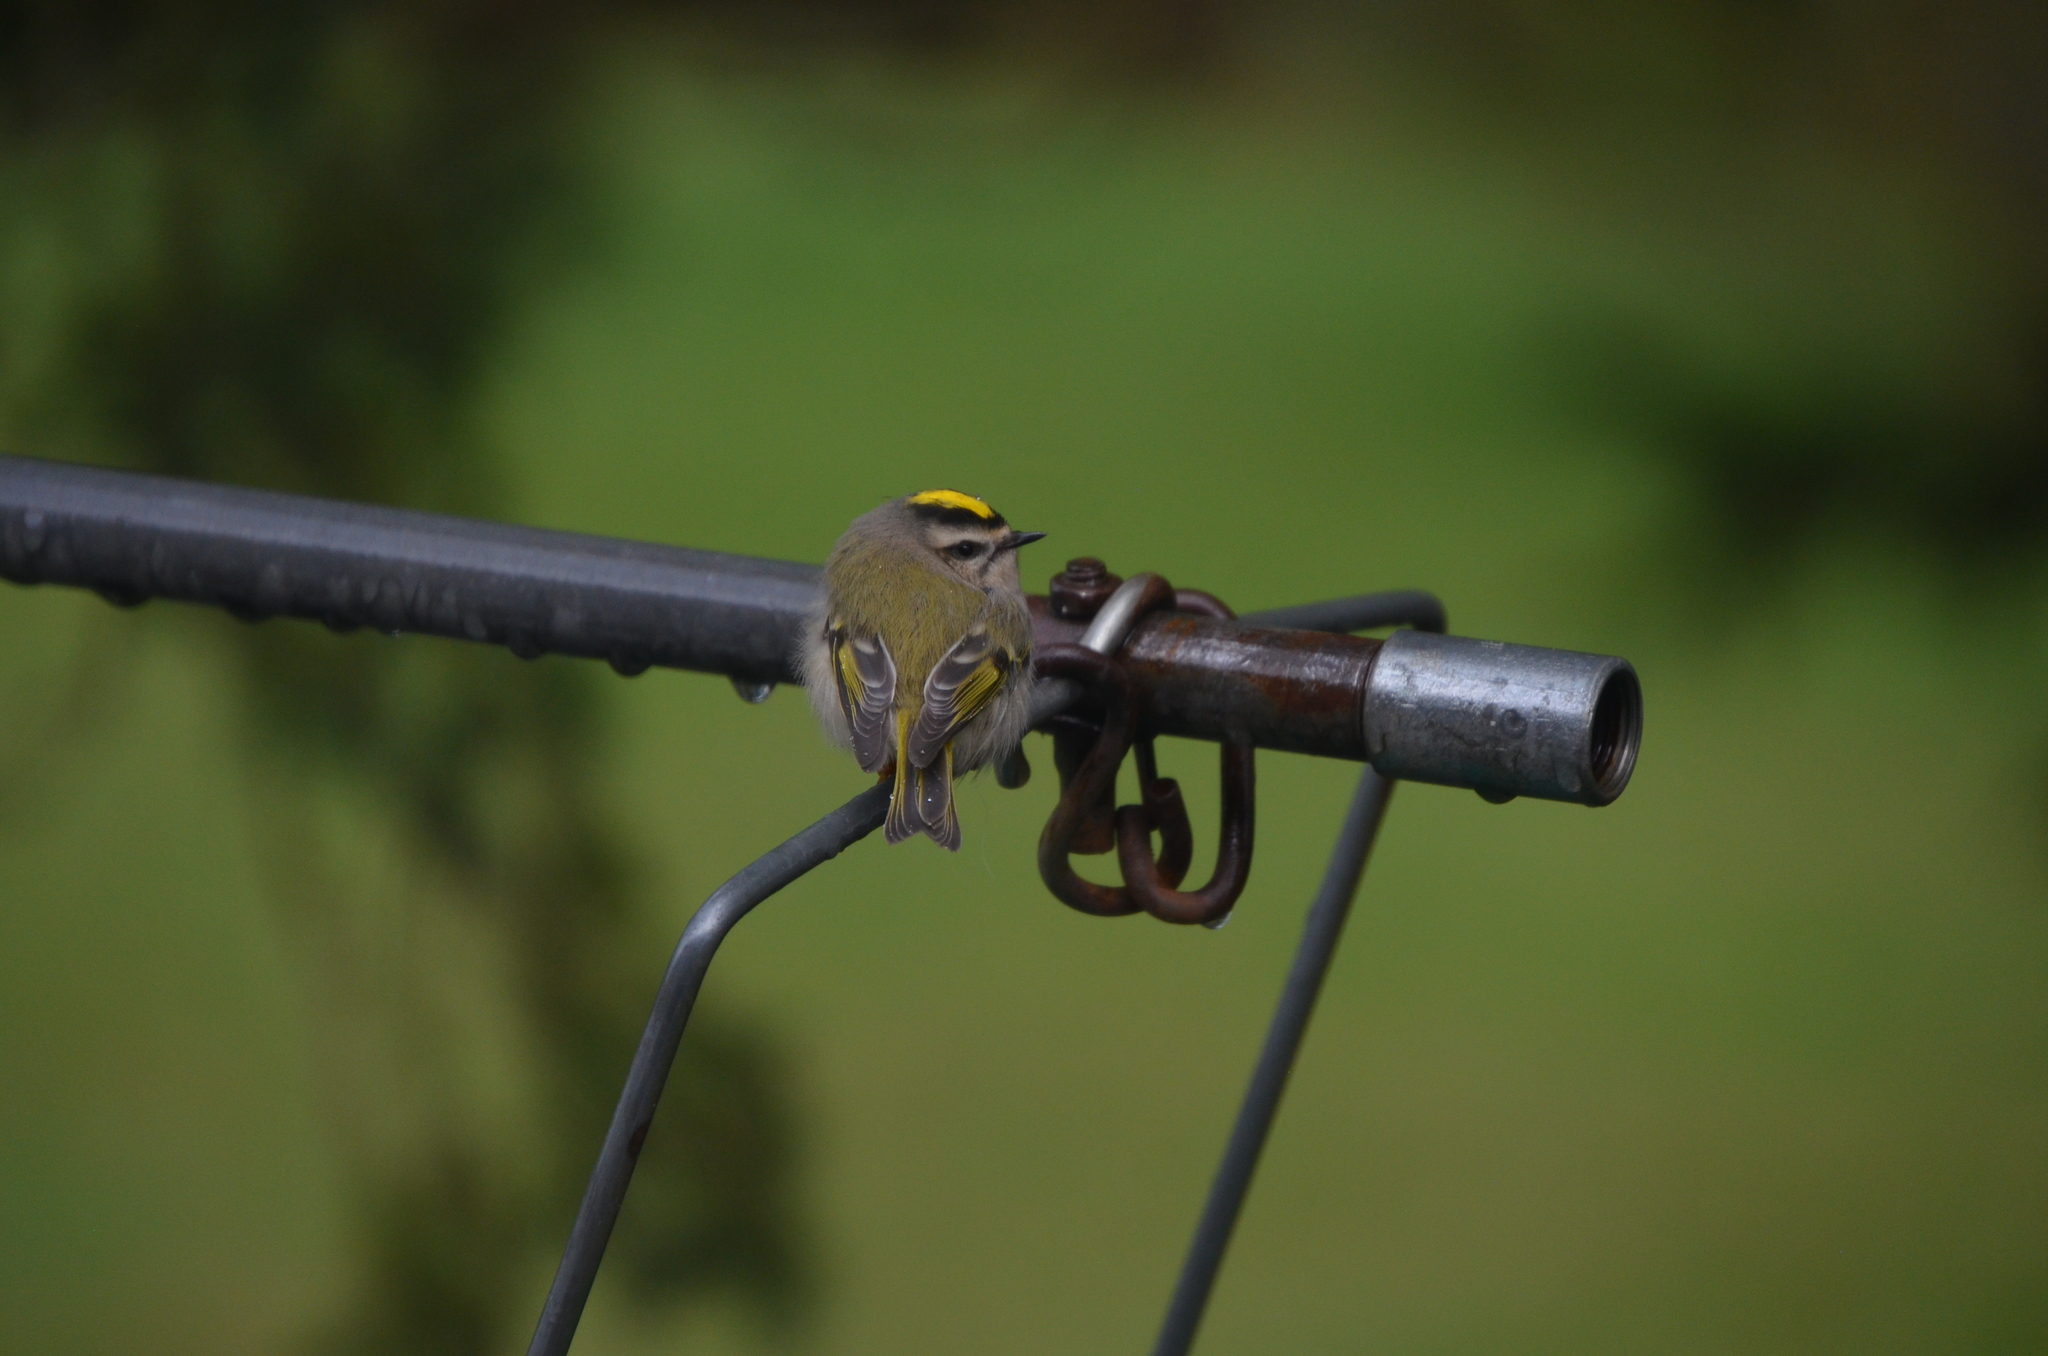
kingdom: Animalia
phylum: Chordata
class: Aves
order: Passeriformes
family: Regulidae
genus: Regulus
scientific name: Regulus satrapa
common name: Golden-crowned kinglet
